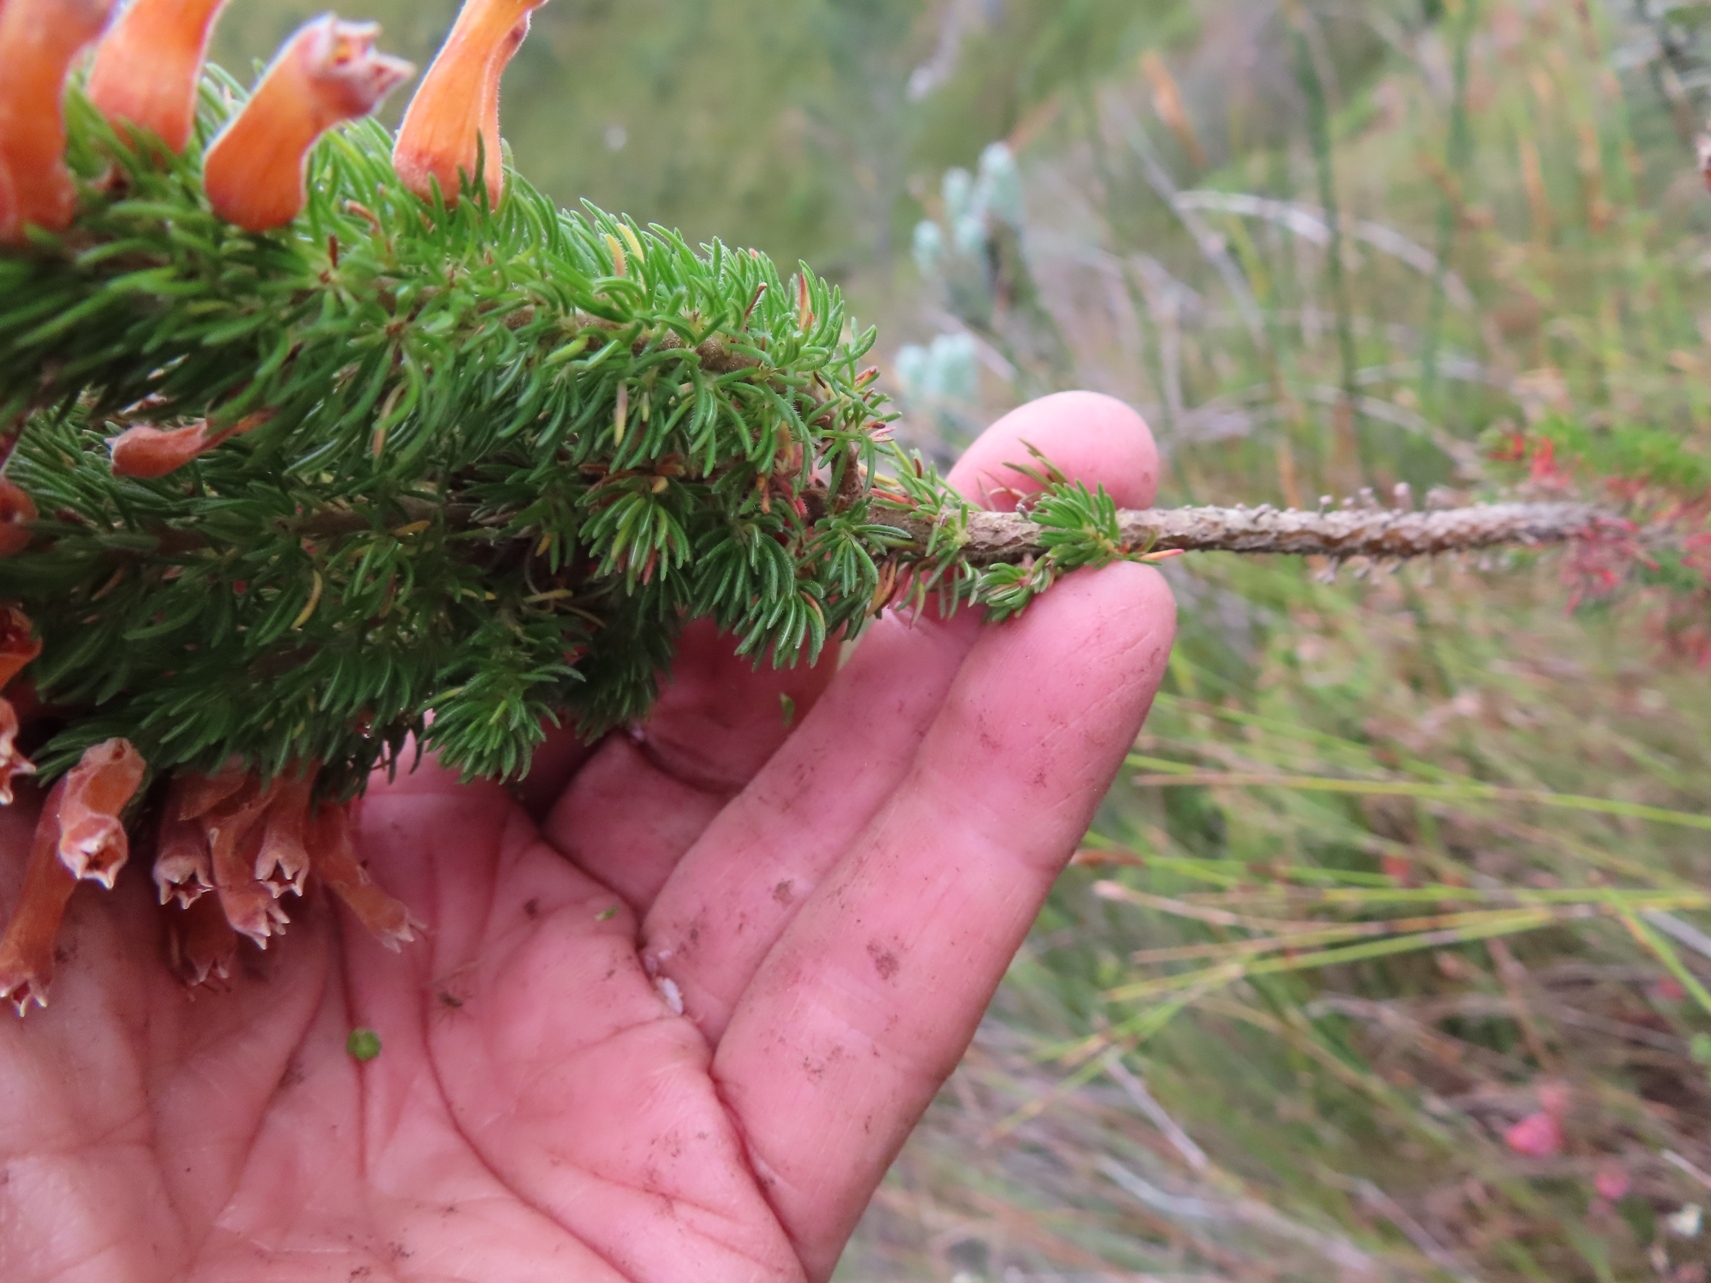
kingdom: Plantae
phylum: Tracheophyta
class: Magnoliopsida
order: Ericales
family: Ericaceae
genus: Erica
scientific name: Erica xanthina
